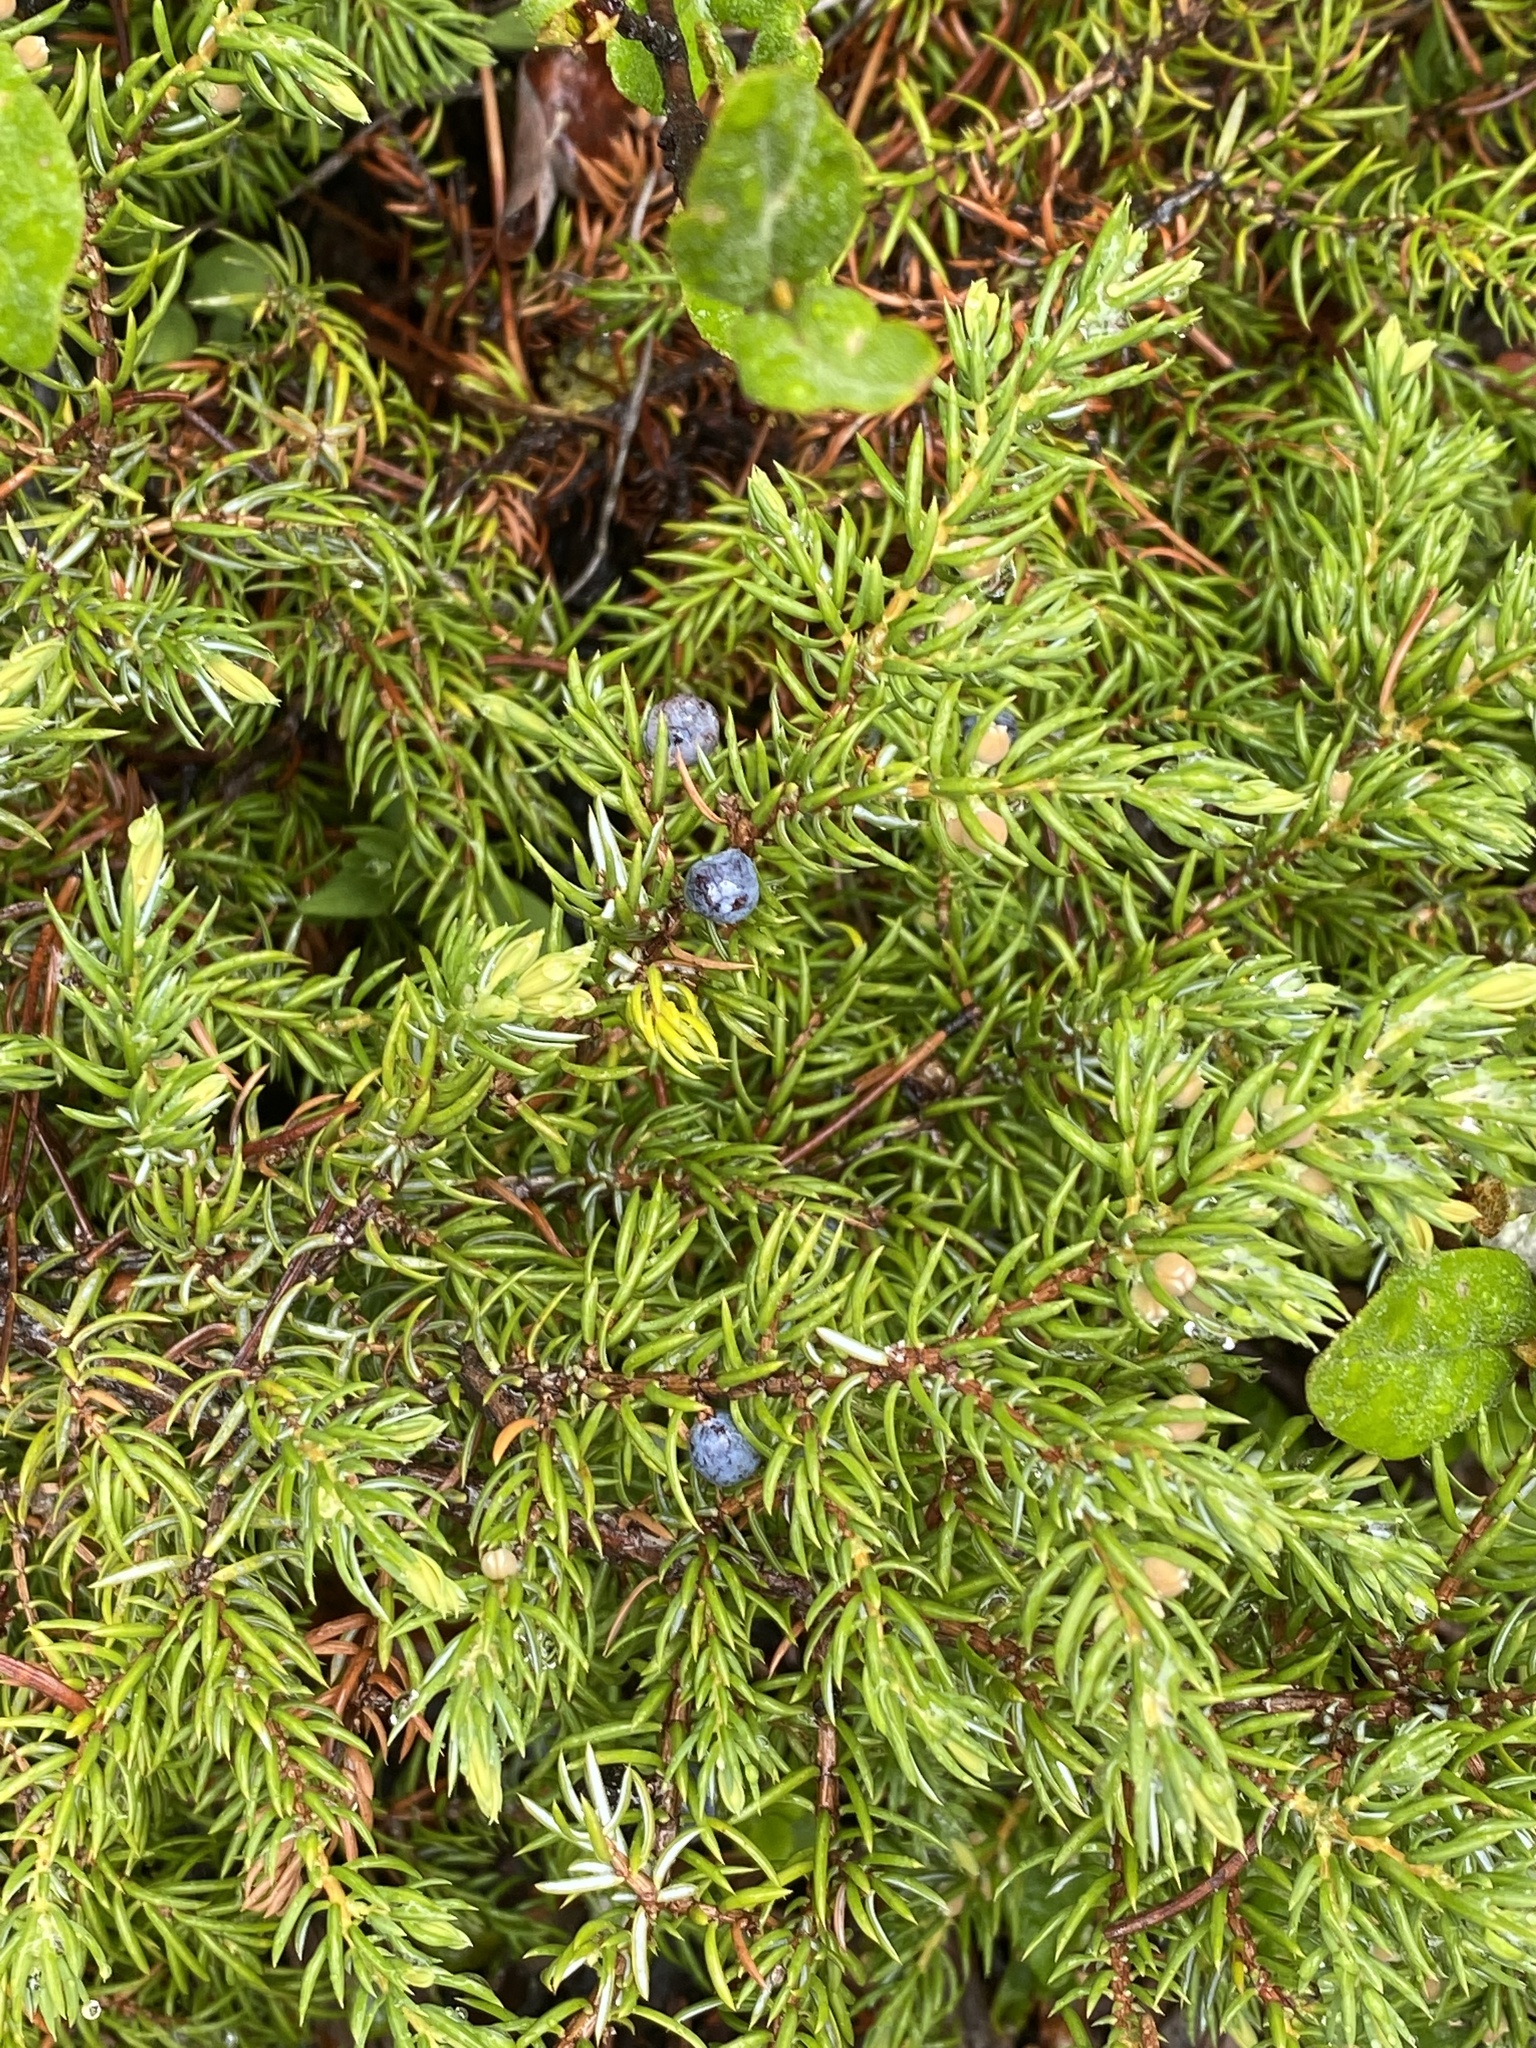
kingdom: Plantae
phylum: Tracheophyta
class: Pinopsida
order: Pinales
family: Cupressaceae
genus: Juniperus
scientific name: Juniperus communis
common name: Common juniper
